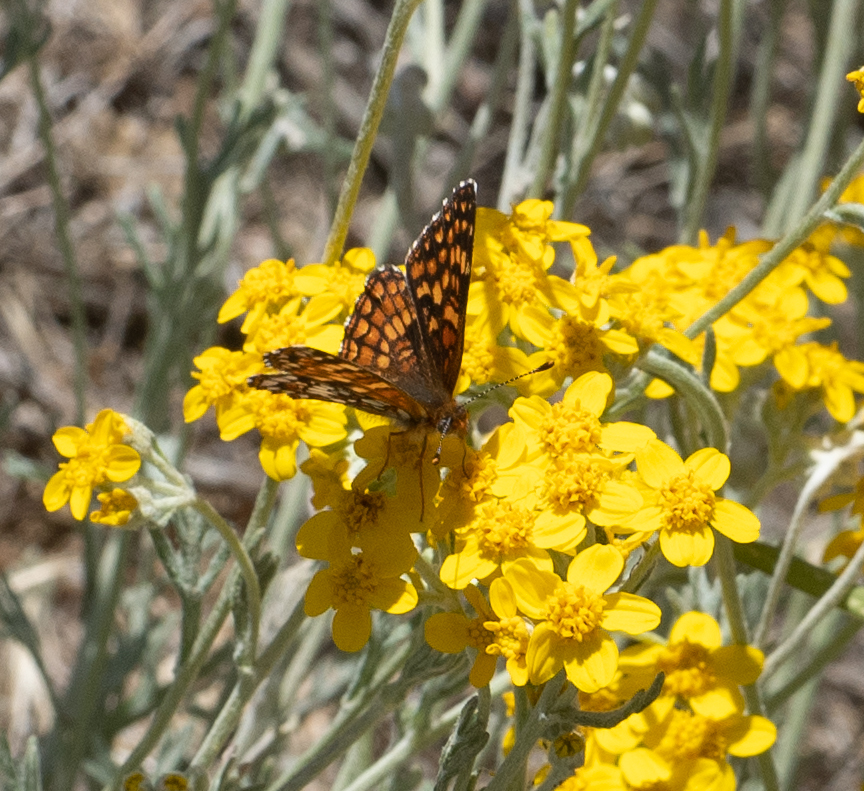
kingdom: Animalia
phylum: Arthropoda
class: Insecta
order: Lepidoptera
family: Nymphalidae
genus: Chlosyne
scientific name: Chlosyne gabbii
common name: Gabb's checkerspot
